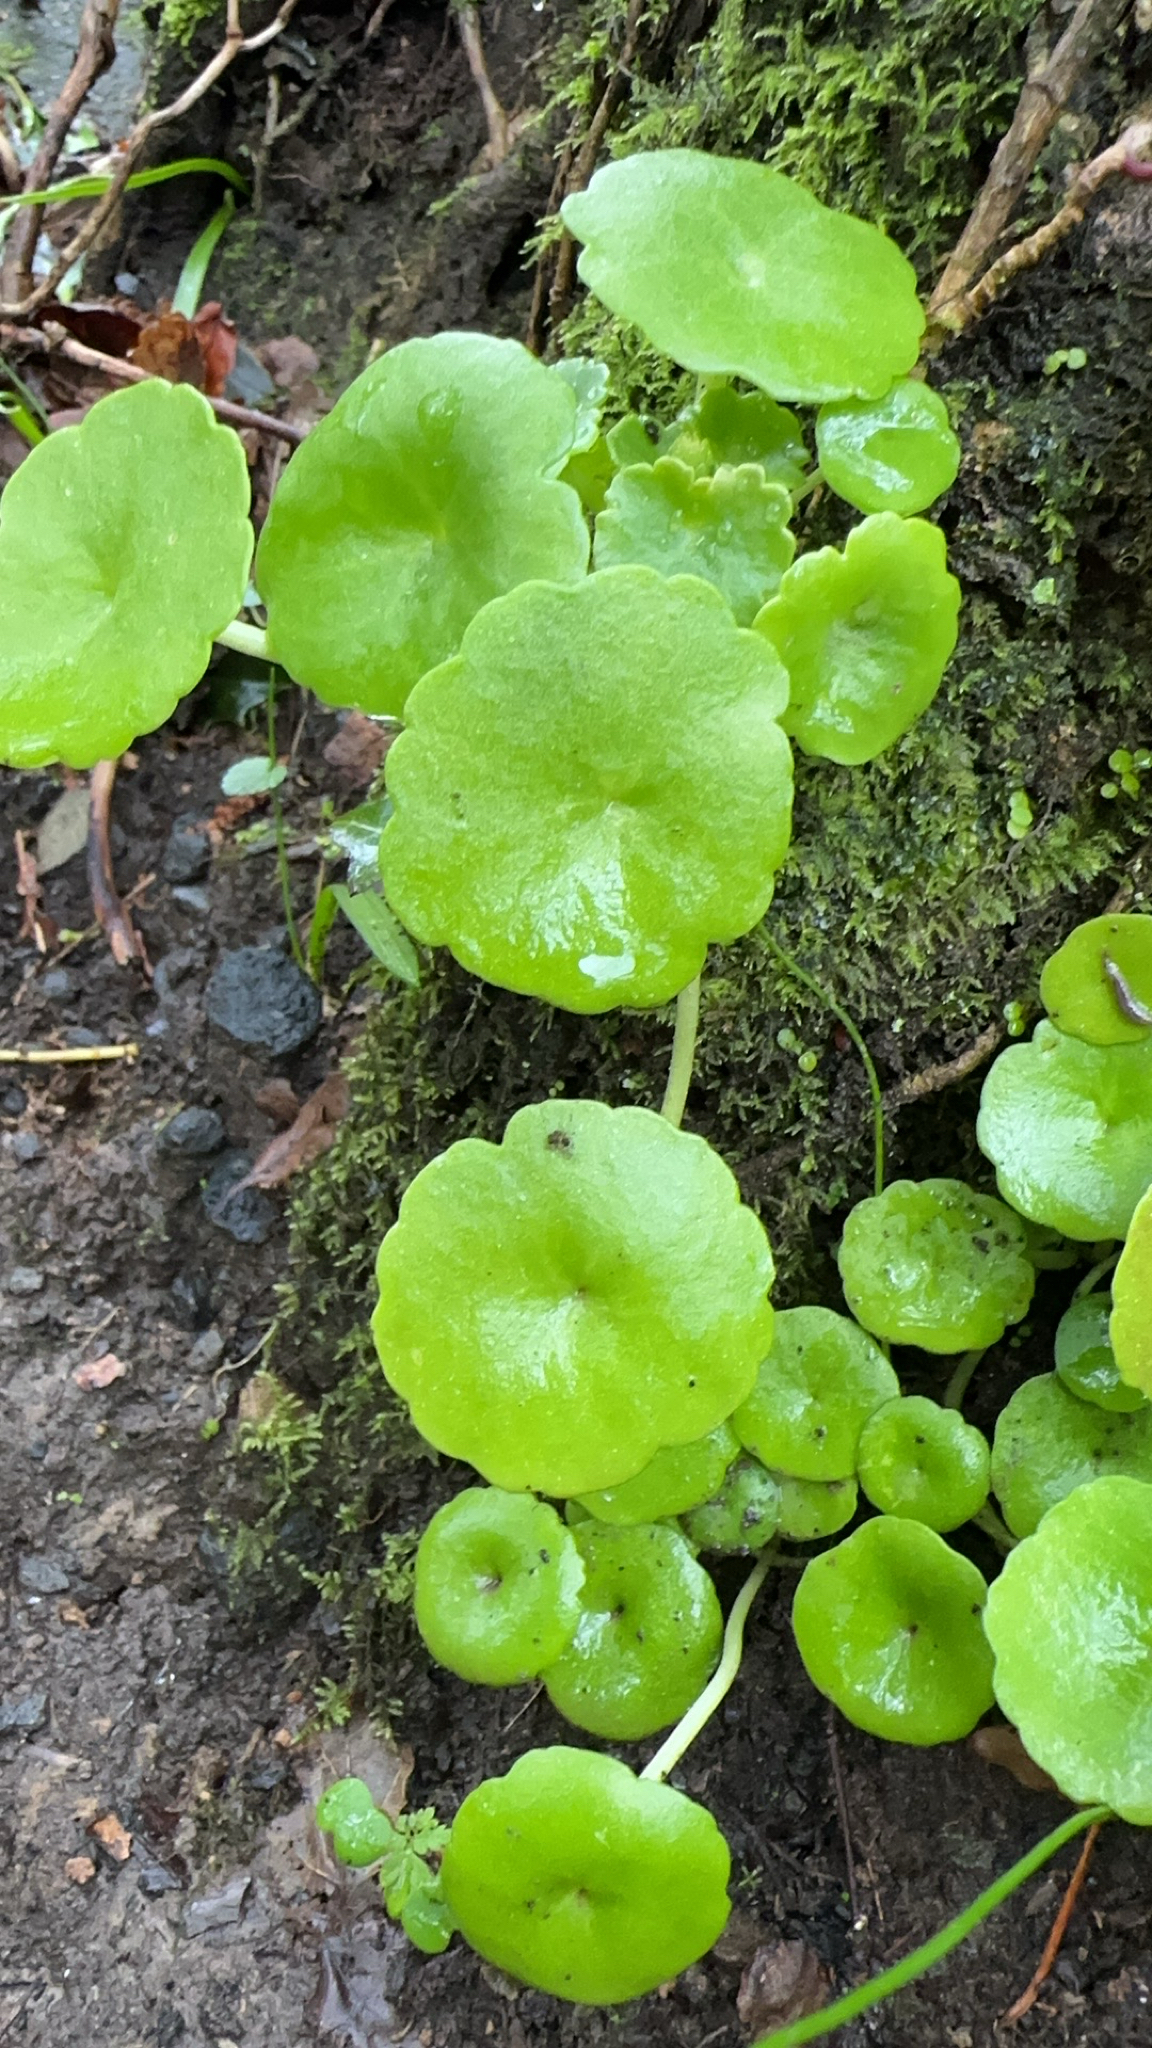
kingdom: Plantae
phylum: Tracheophyta
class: Magnoliopsida
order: Saxifragales
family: Crassulaceae
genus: Umbilicus
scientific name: Umbilicus rupestris
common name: Navelwort
